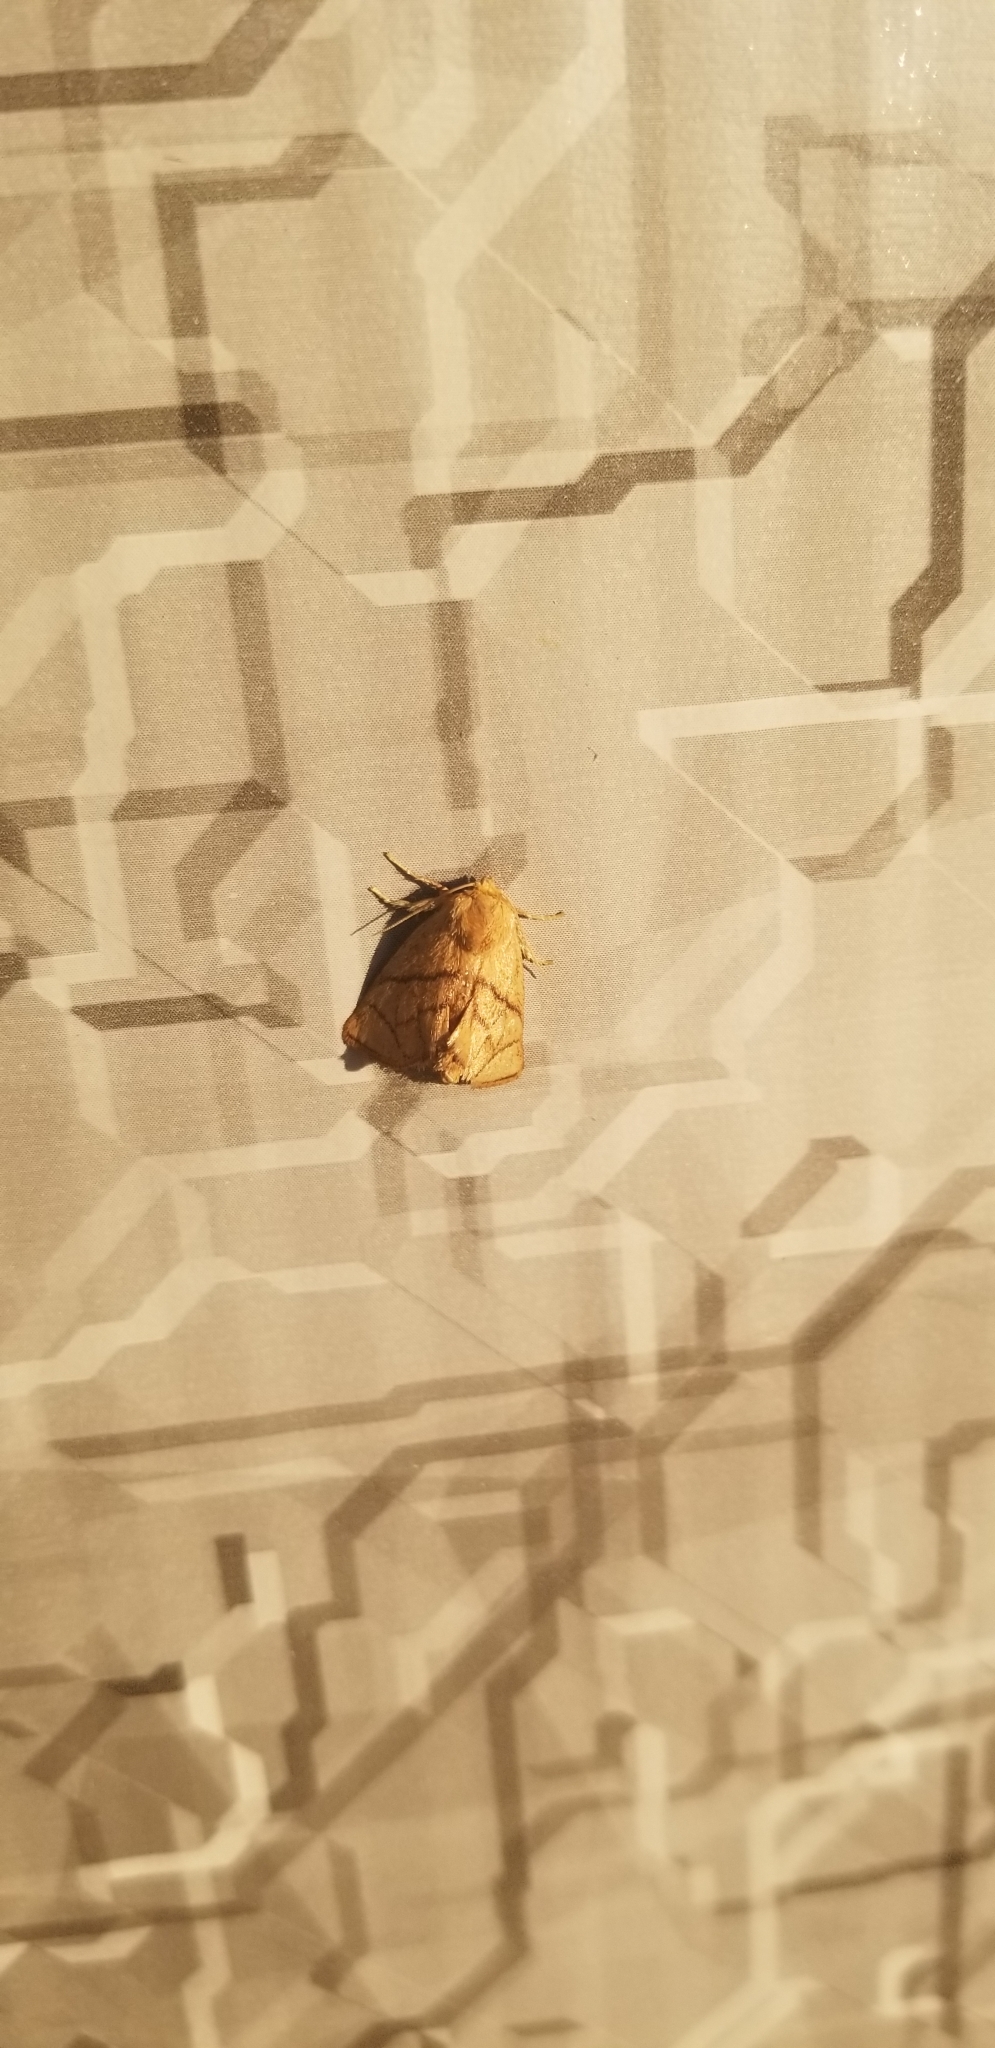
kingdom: Animalia
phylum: Arthropoda
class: Insecta
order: Lepidoptera
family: Limacodidae
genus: Apoda
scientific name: Apoda y-inversa
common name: Yellow-collared slug moth
